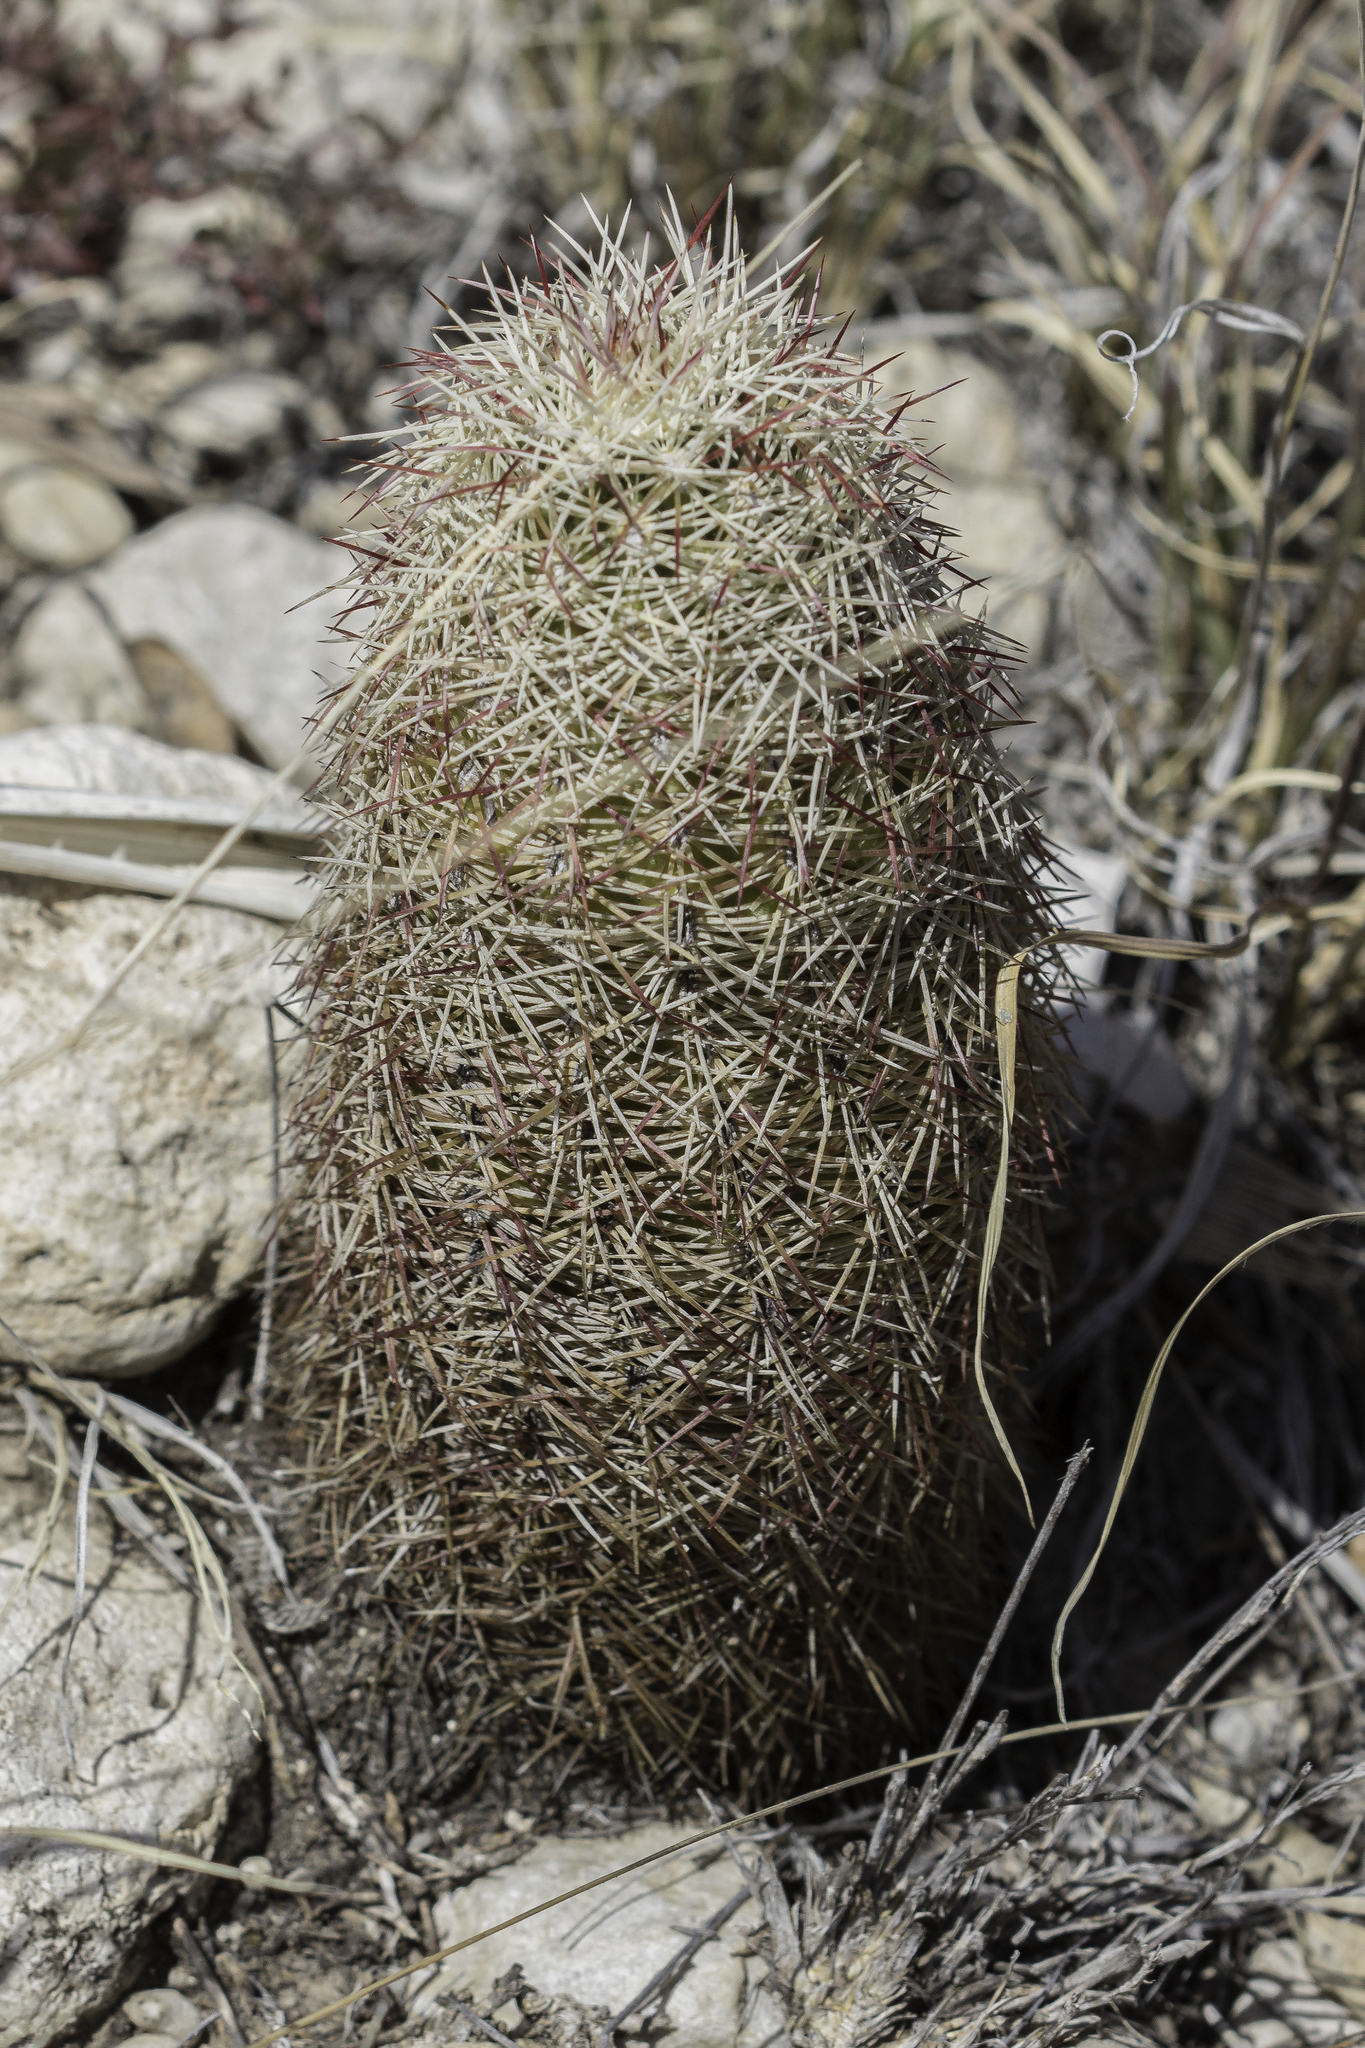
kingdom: Plantae
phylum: Tracheophyta
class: Magnoliopsida
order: Caryophyllales
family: Cactaceae
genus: Echinocereus
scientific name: Echinocereus viridiflorus
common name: Nylon hedgehog cactus
